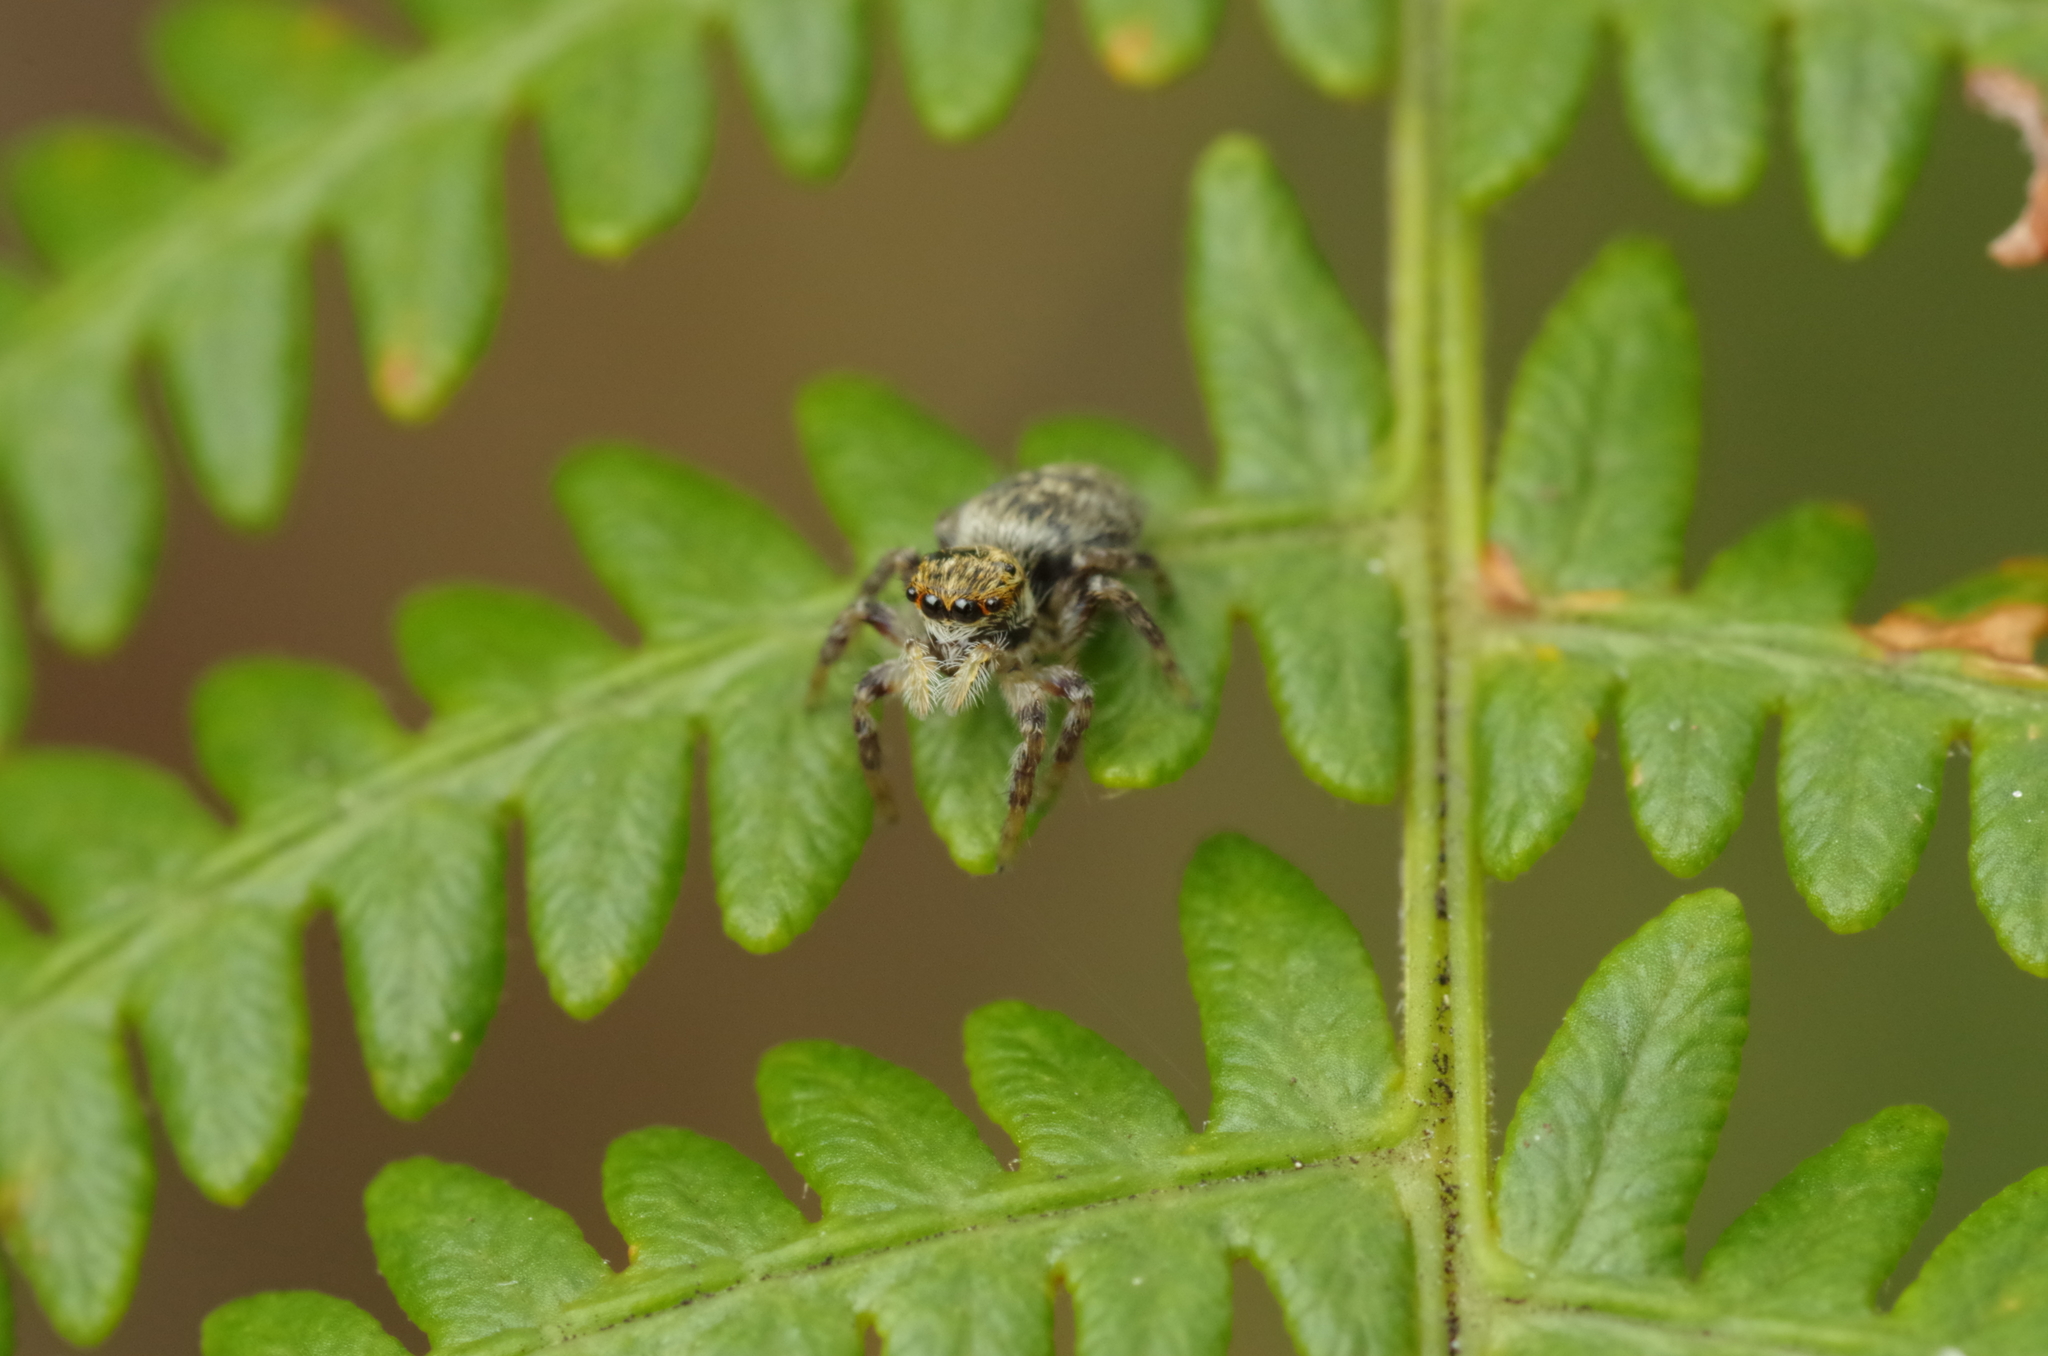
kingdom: Animalia
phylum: Arthropoda
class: Arachnida
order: Araneae
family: Salticidae
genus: Carrhotus
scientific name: Carrhotus xanthogramma
